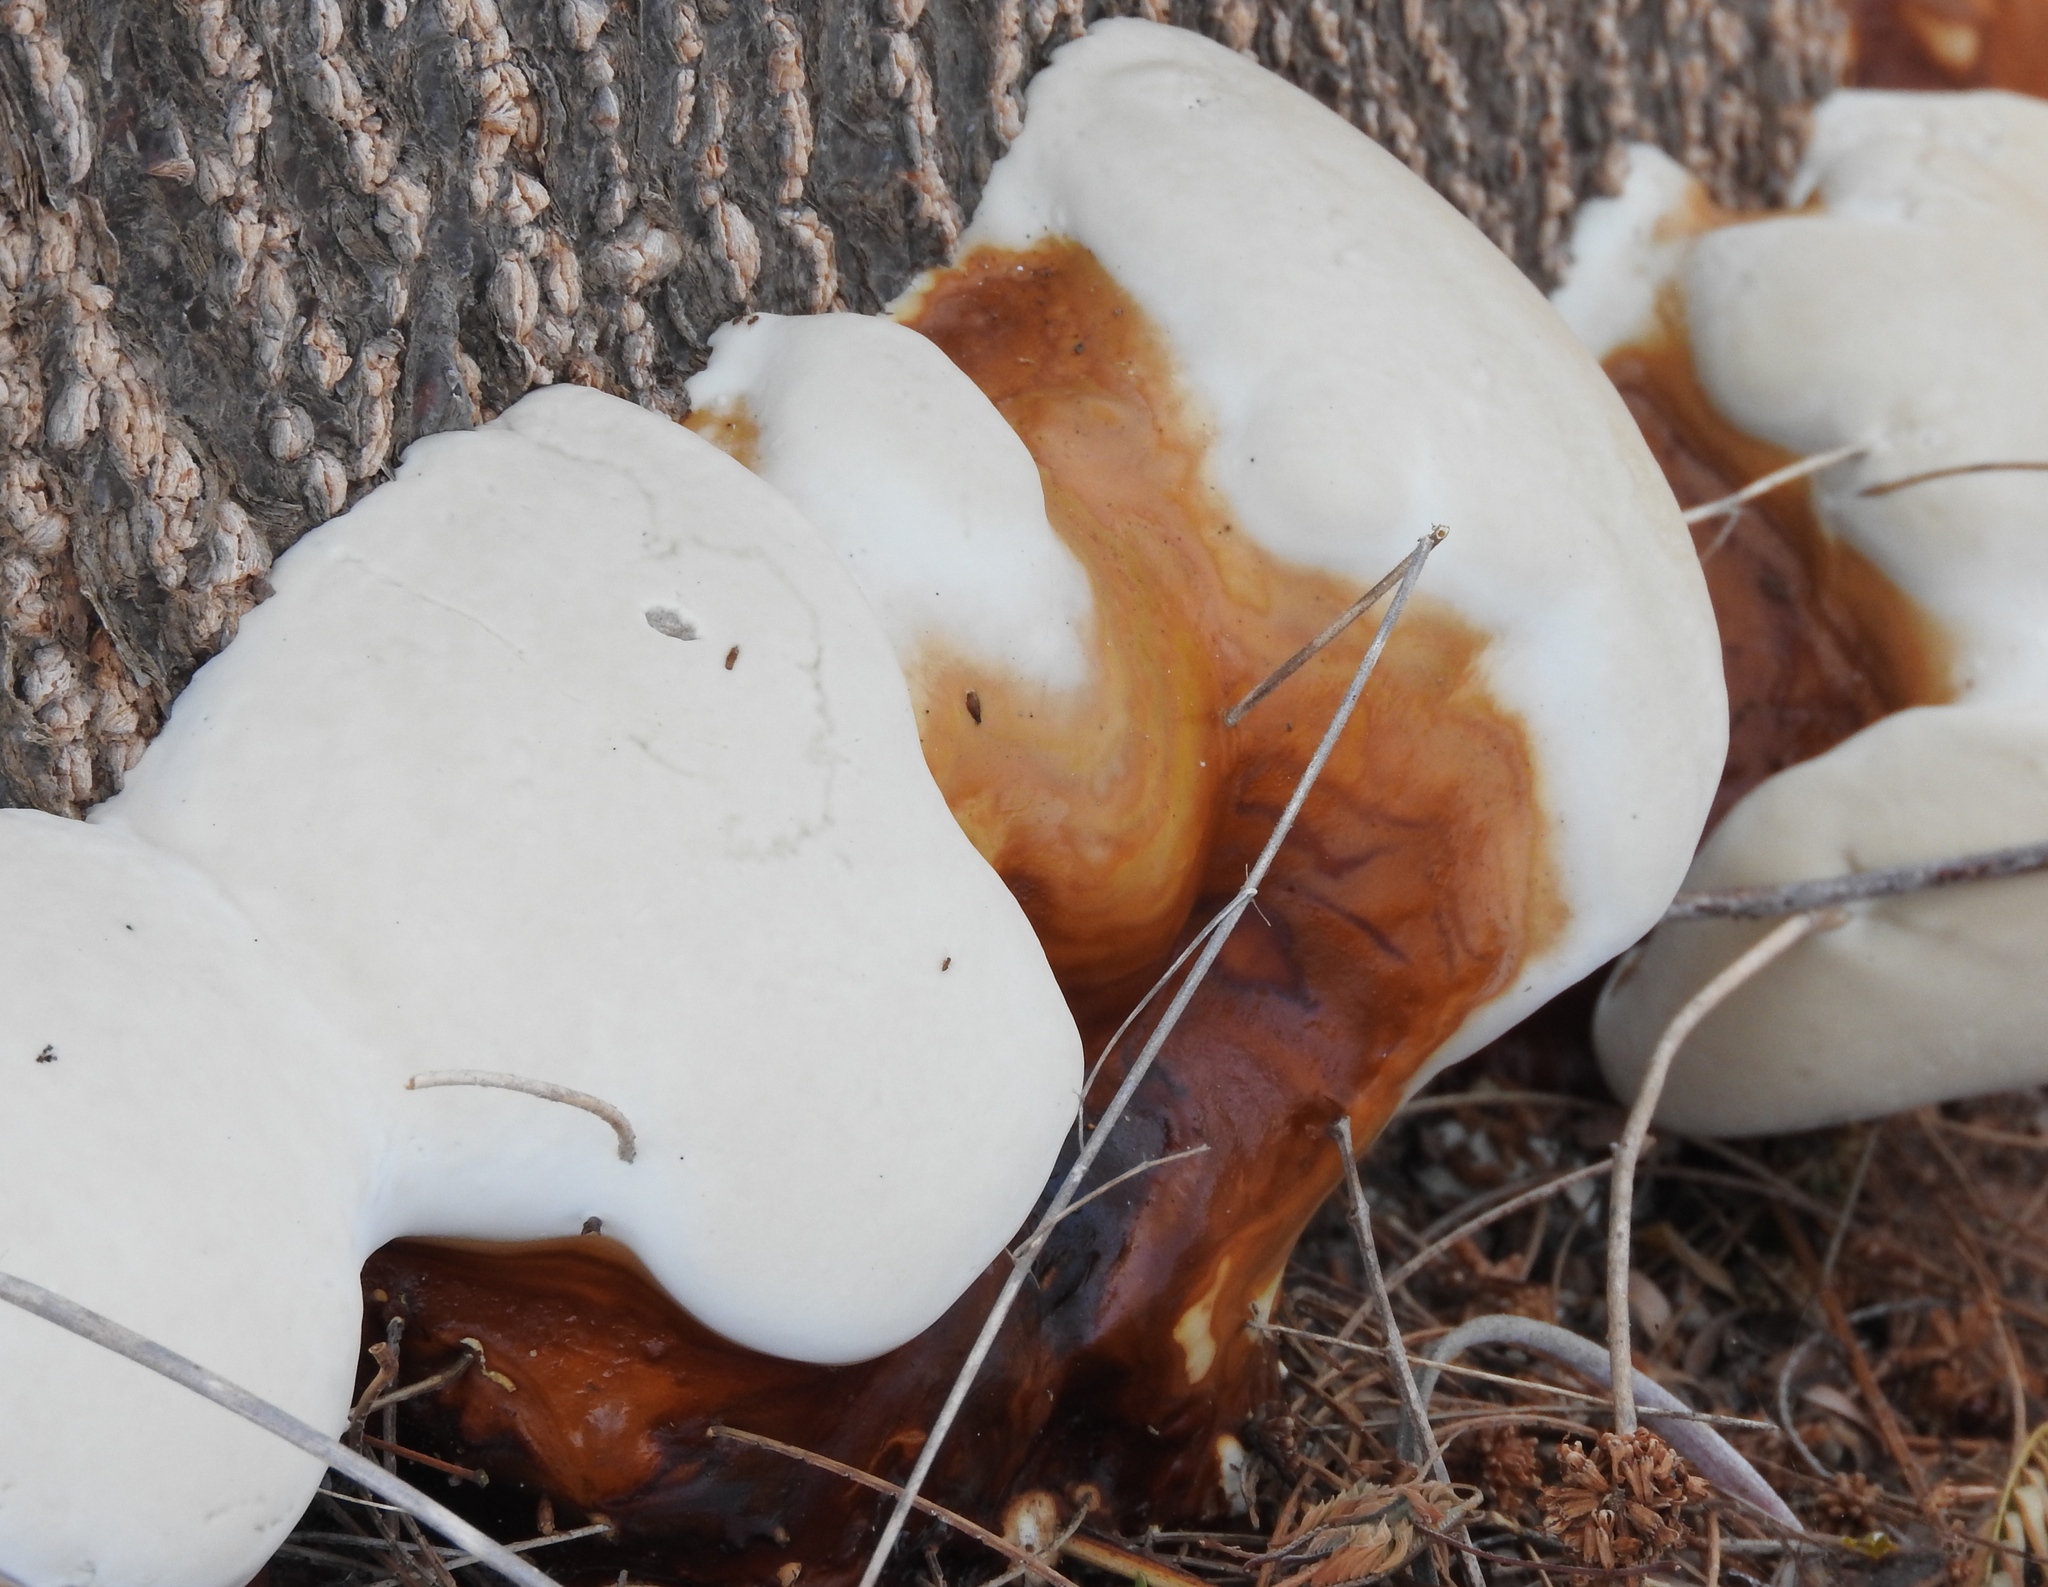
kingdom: Fungi
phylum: Basidiomycota
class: Agaricomycetes
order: Polyporales
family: Polyporaceae
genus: Ganoderma
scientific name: Ganoderma
